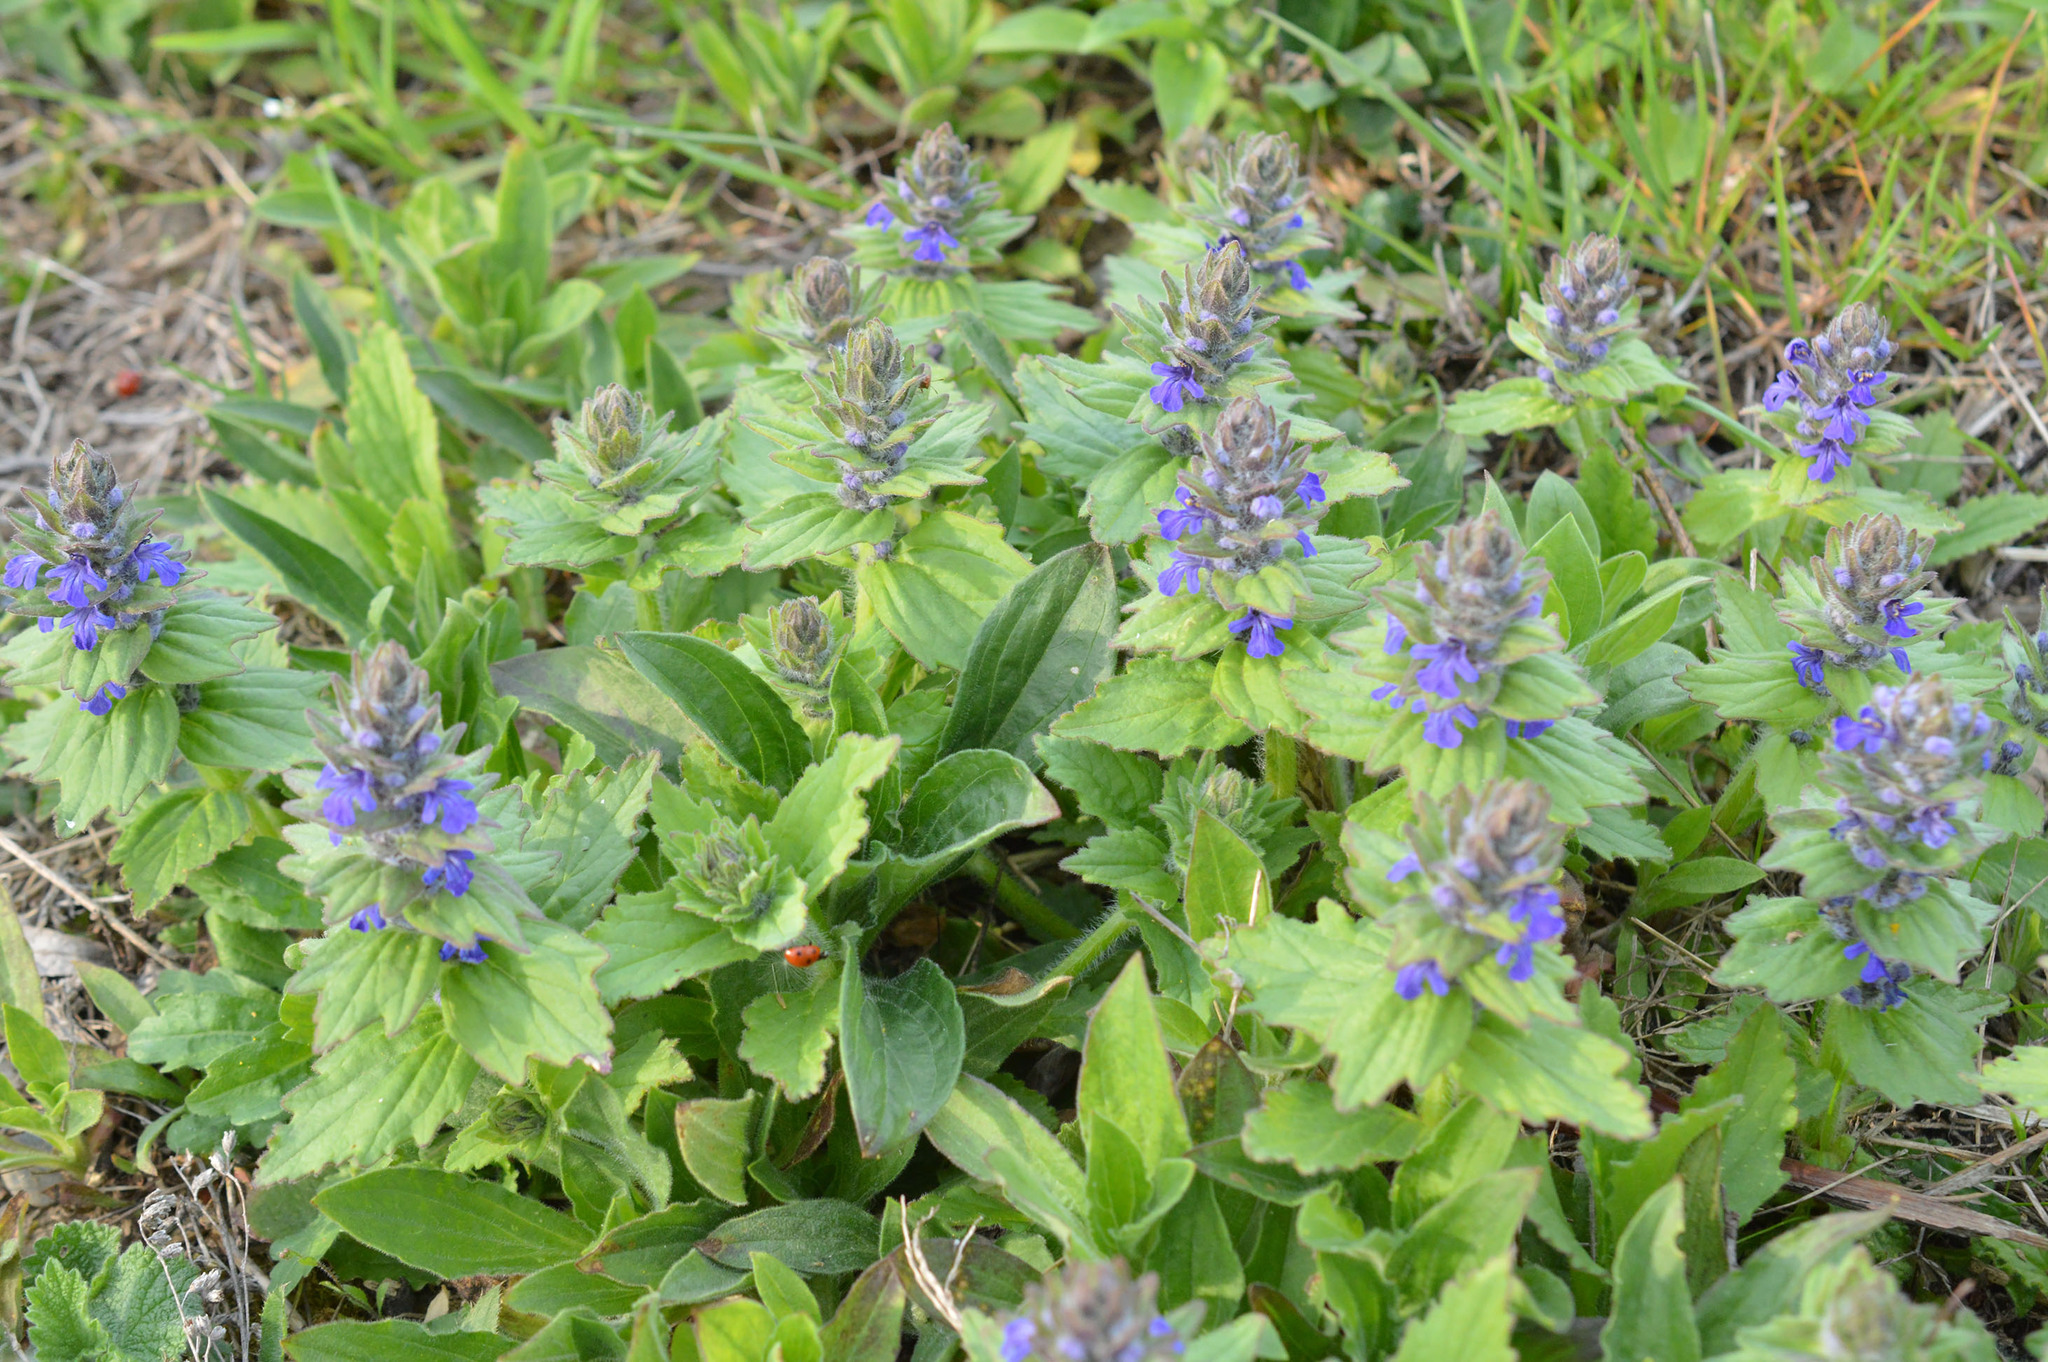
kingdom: Plantae
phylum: Tracheophyta
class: Magnoliopsida
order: Lamiales
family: Lamiaceae
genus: Ajuga
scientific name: Ajuga genevensis
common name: Blue bugle
